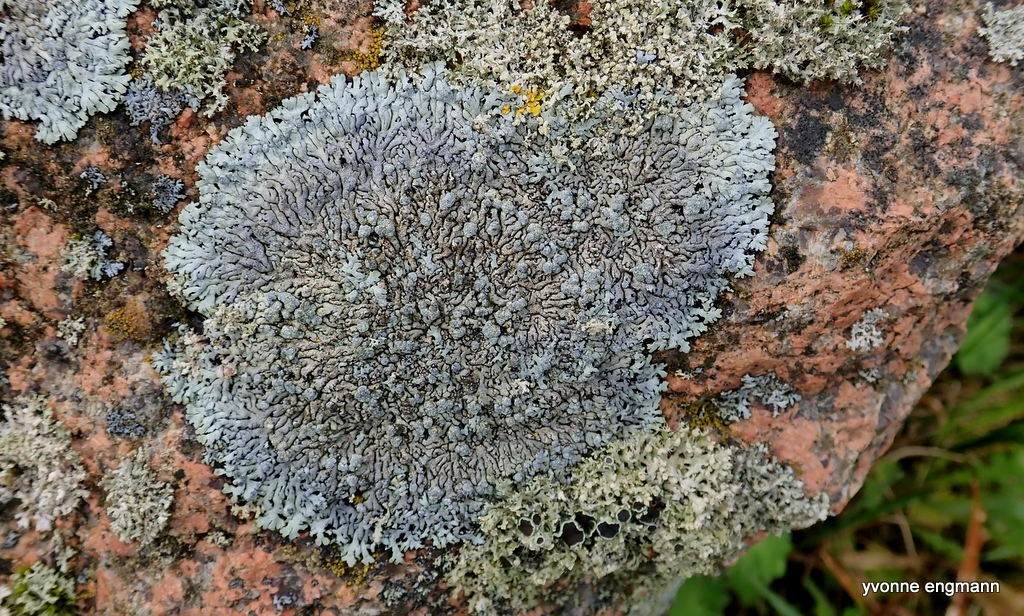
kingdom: Fungi
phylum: Ascomycota
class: Lecanoromycetes
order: Caliciales
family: Physciaceae
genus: Physcia
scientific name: Physcia caesia
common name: Blue-gray rosette lichen
